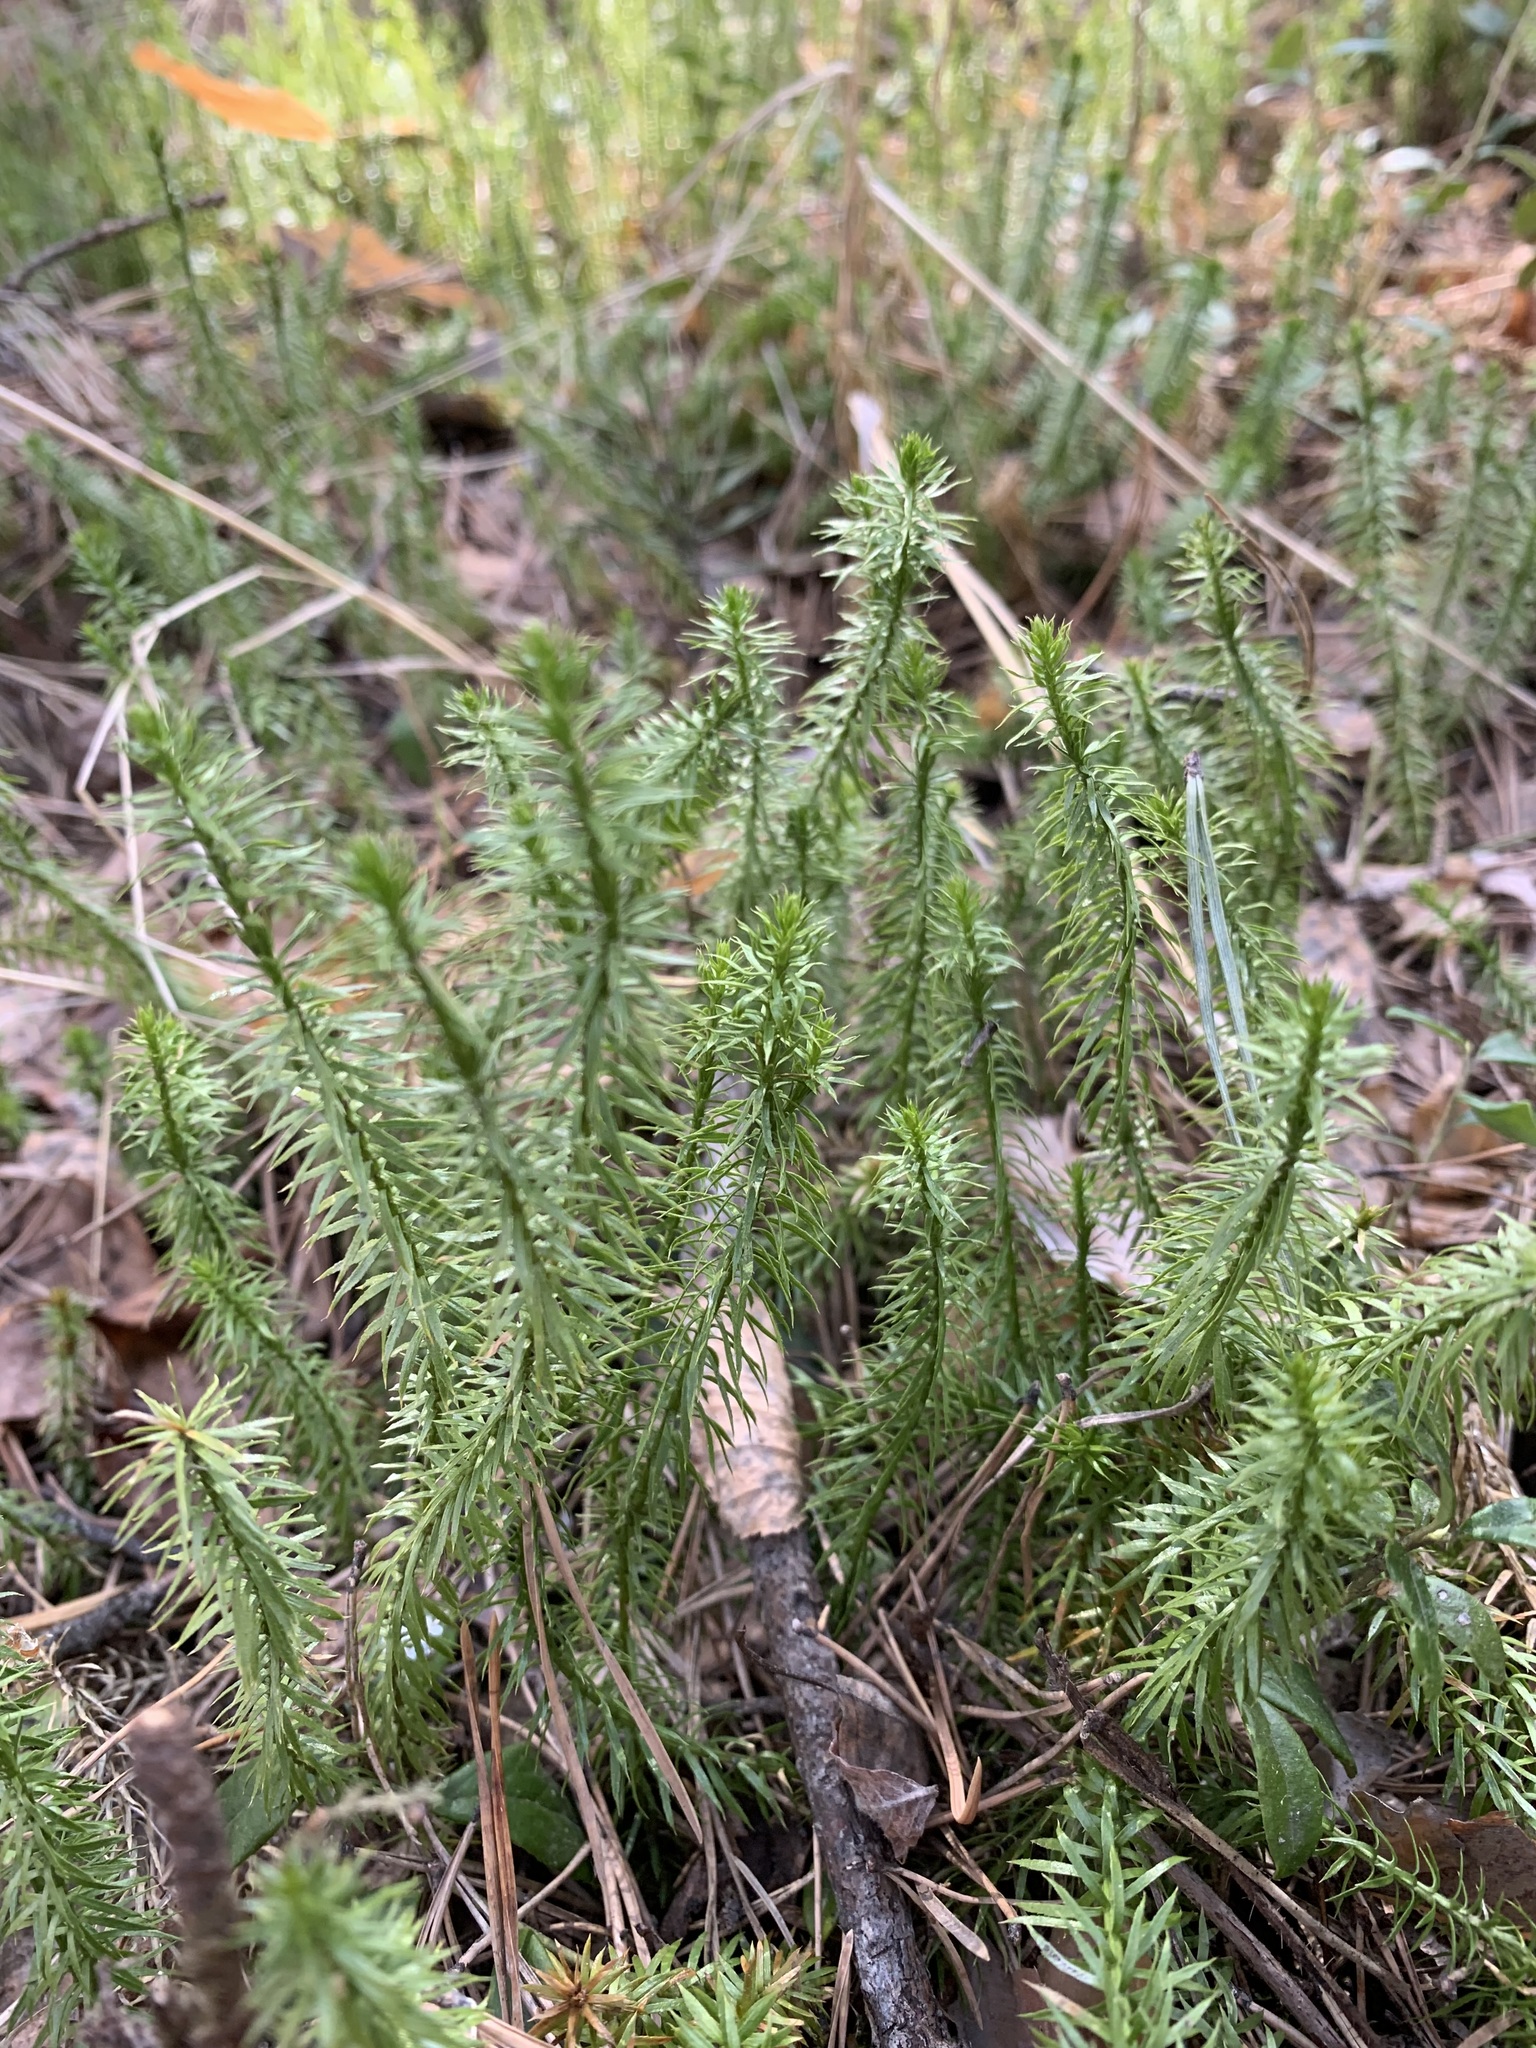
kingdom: Plantae
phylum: Tracheophyta
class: Lycopodiopsida
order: Lycopodiales
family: Lycopodiaceae
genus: Spinulum
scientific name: Spinulum annotinum
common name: Interrupted club-moss
